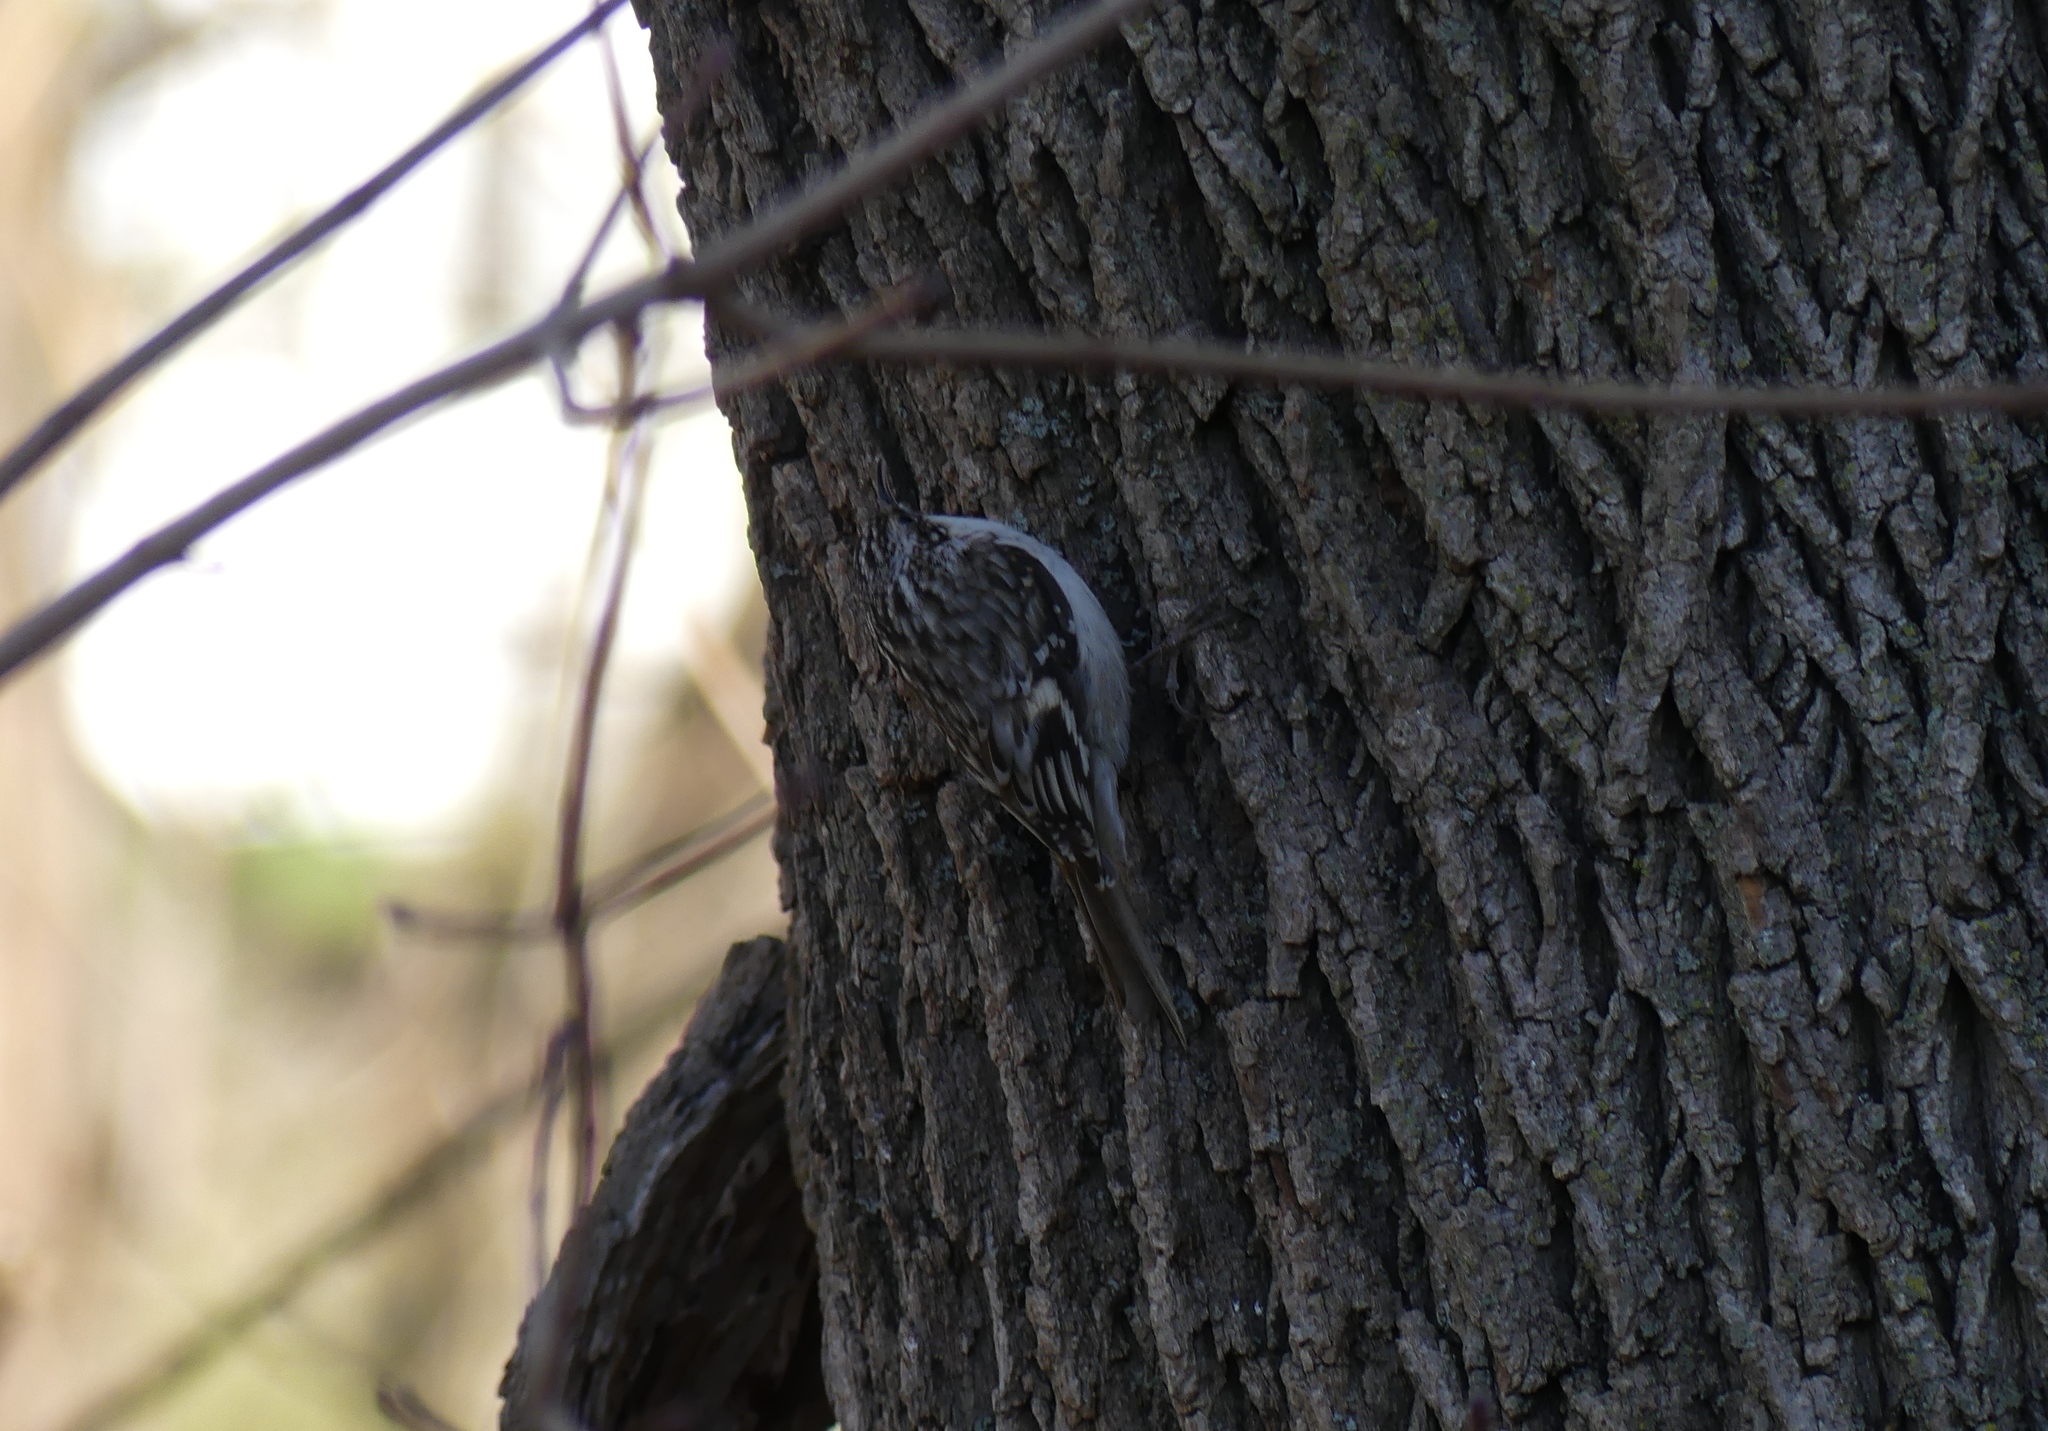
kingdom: Animalia
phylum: Chordata
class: Aves
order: Passeriformes
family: Certhiidae
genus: Certhia
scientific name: Certhia americana
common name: Brown creeper
